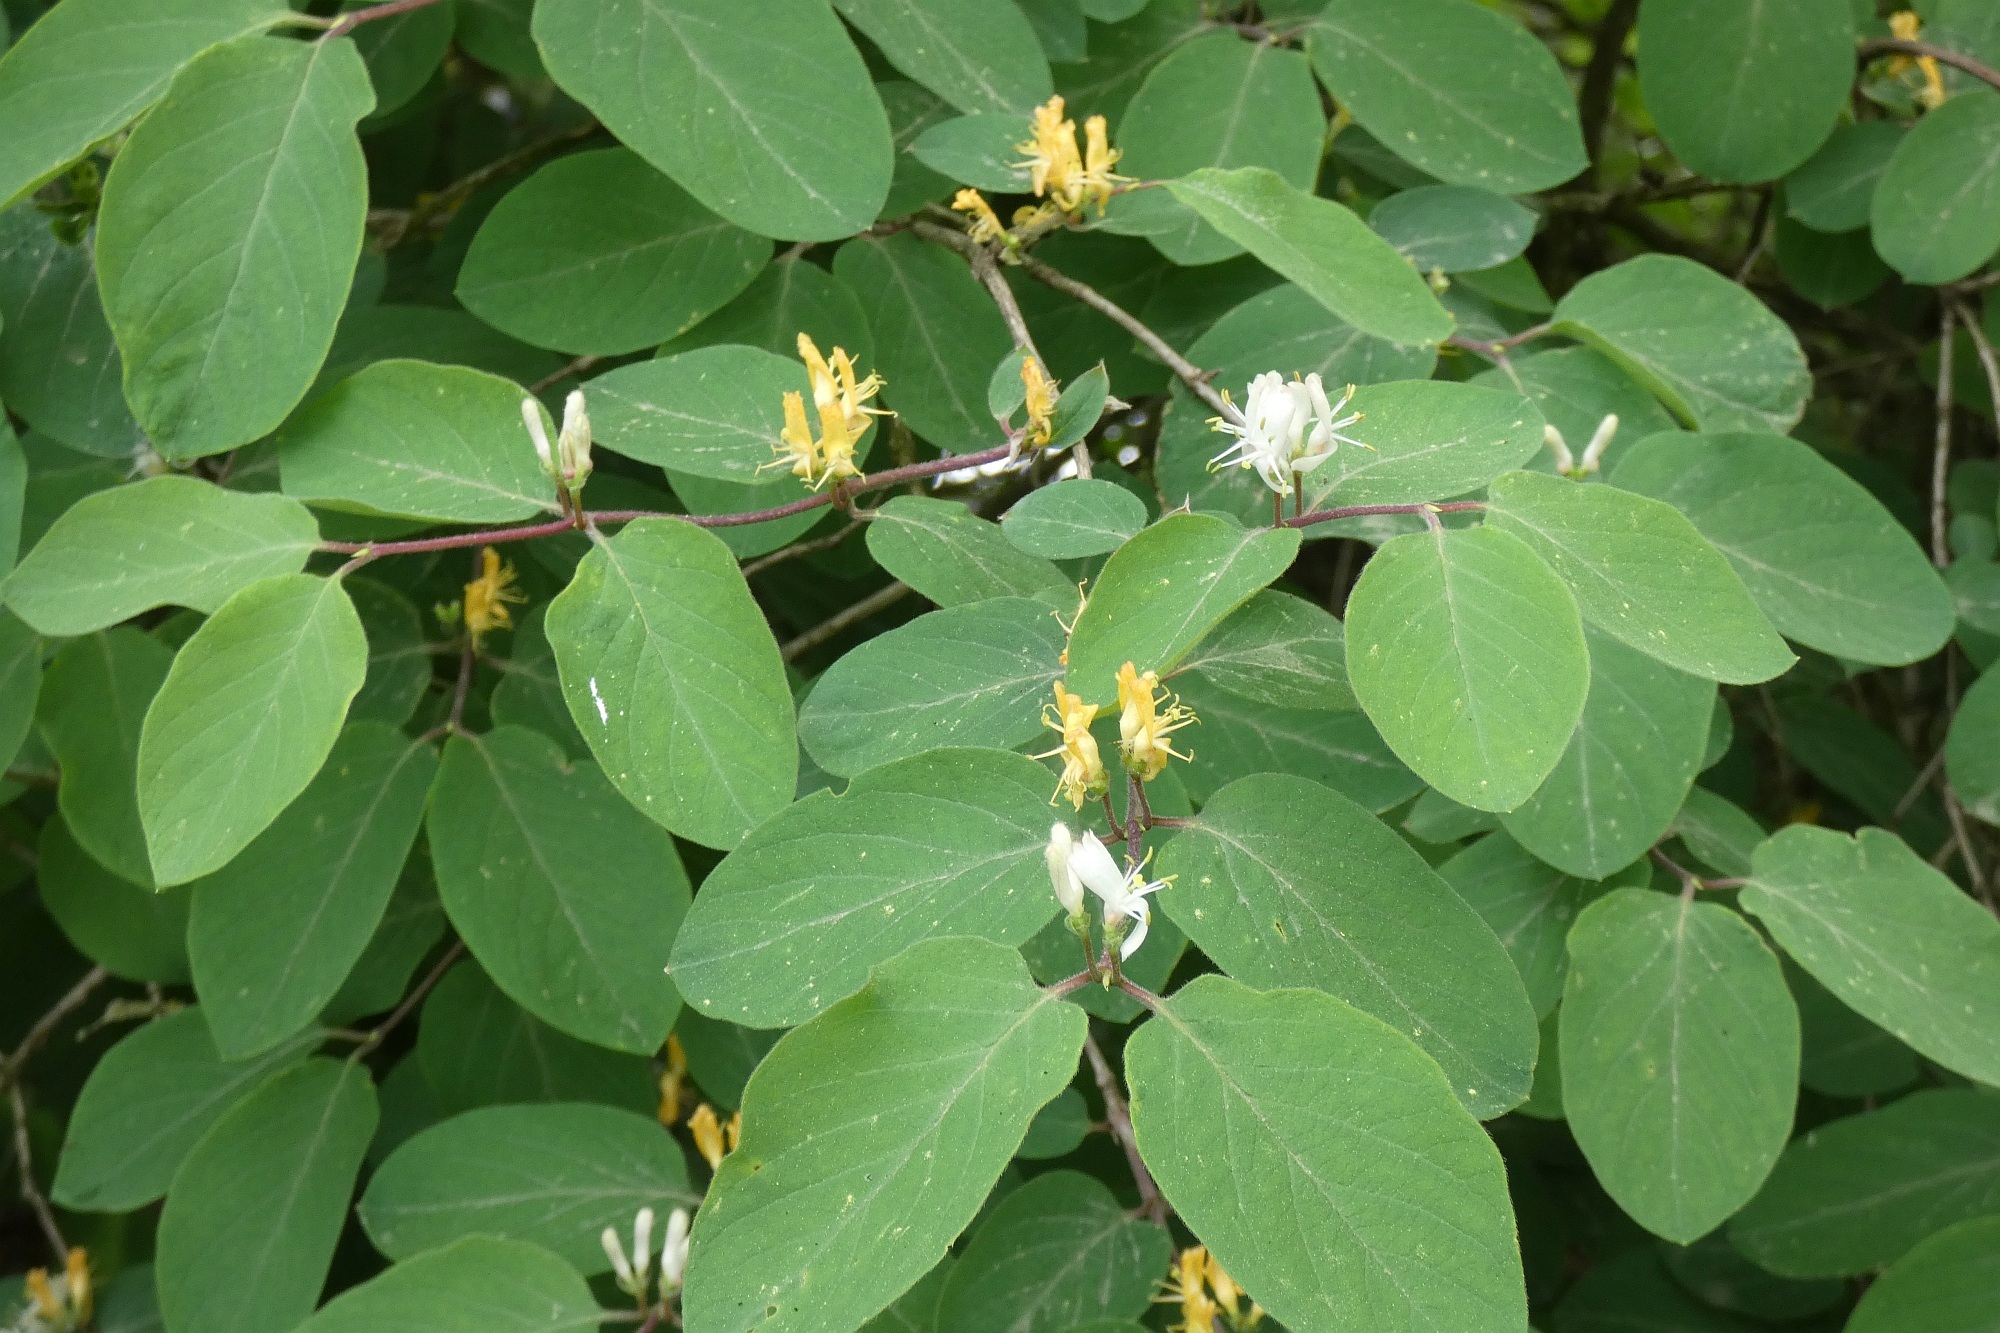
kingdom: Plantae
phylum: Tracheophyta
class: Magnoliopsida
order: Dipsacales
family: Caprifoliaceae
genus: Lonicera
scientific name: Lonicera xylosteum
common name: Fly honeysuckle
